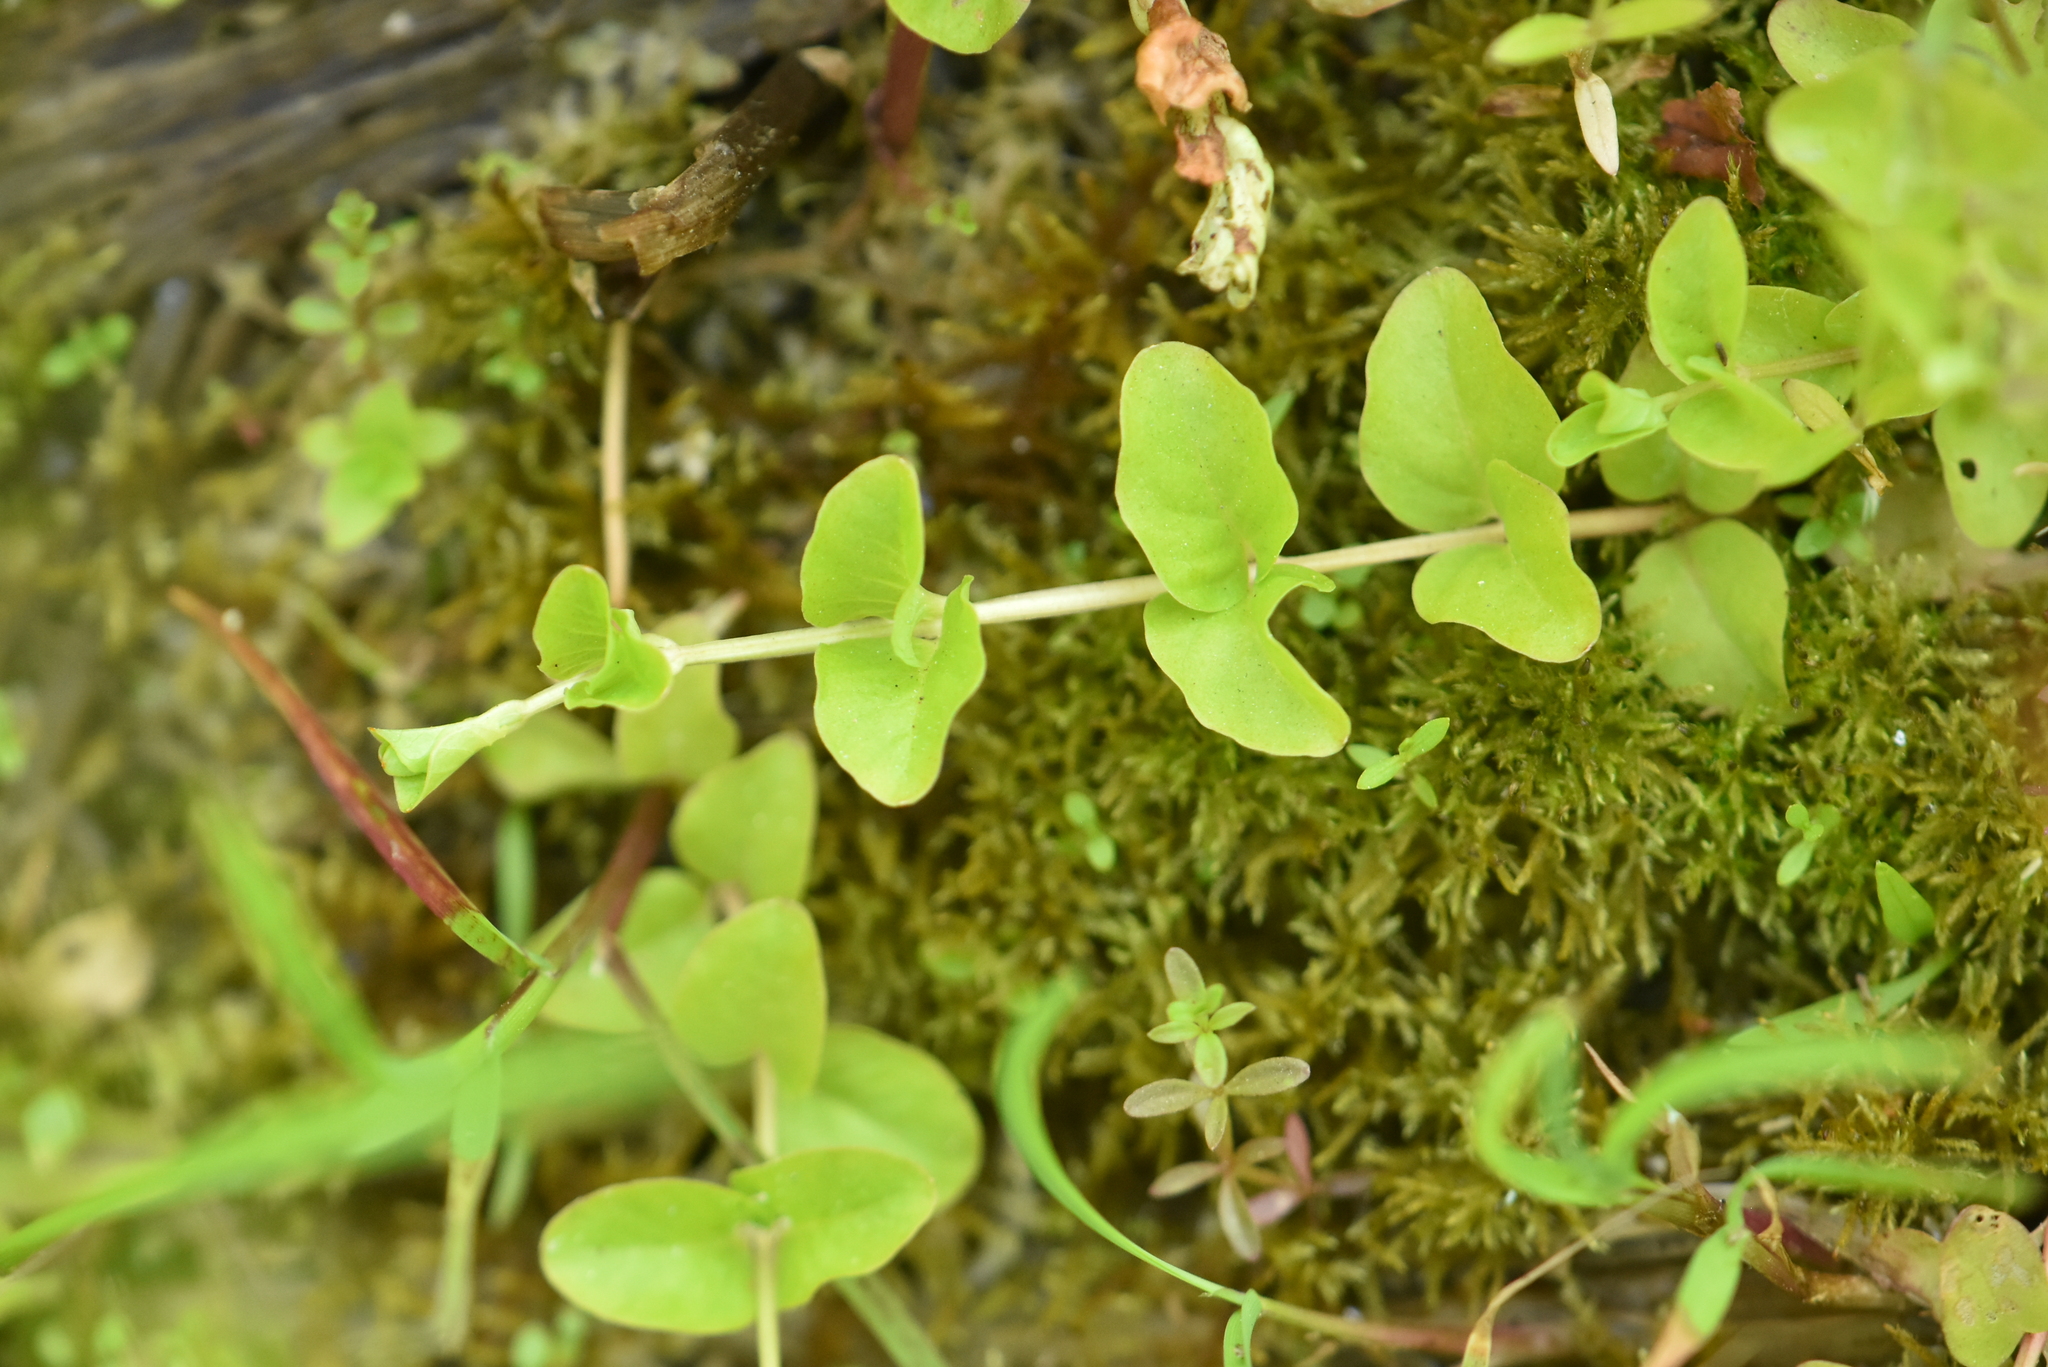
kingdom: Plantae
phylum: Tracheophyta
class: Magnoliopsida
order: Ericales
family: Primulaceae
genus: Lysimachia
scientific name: Lysimachia nummularia
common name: Moneywort
